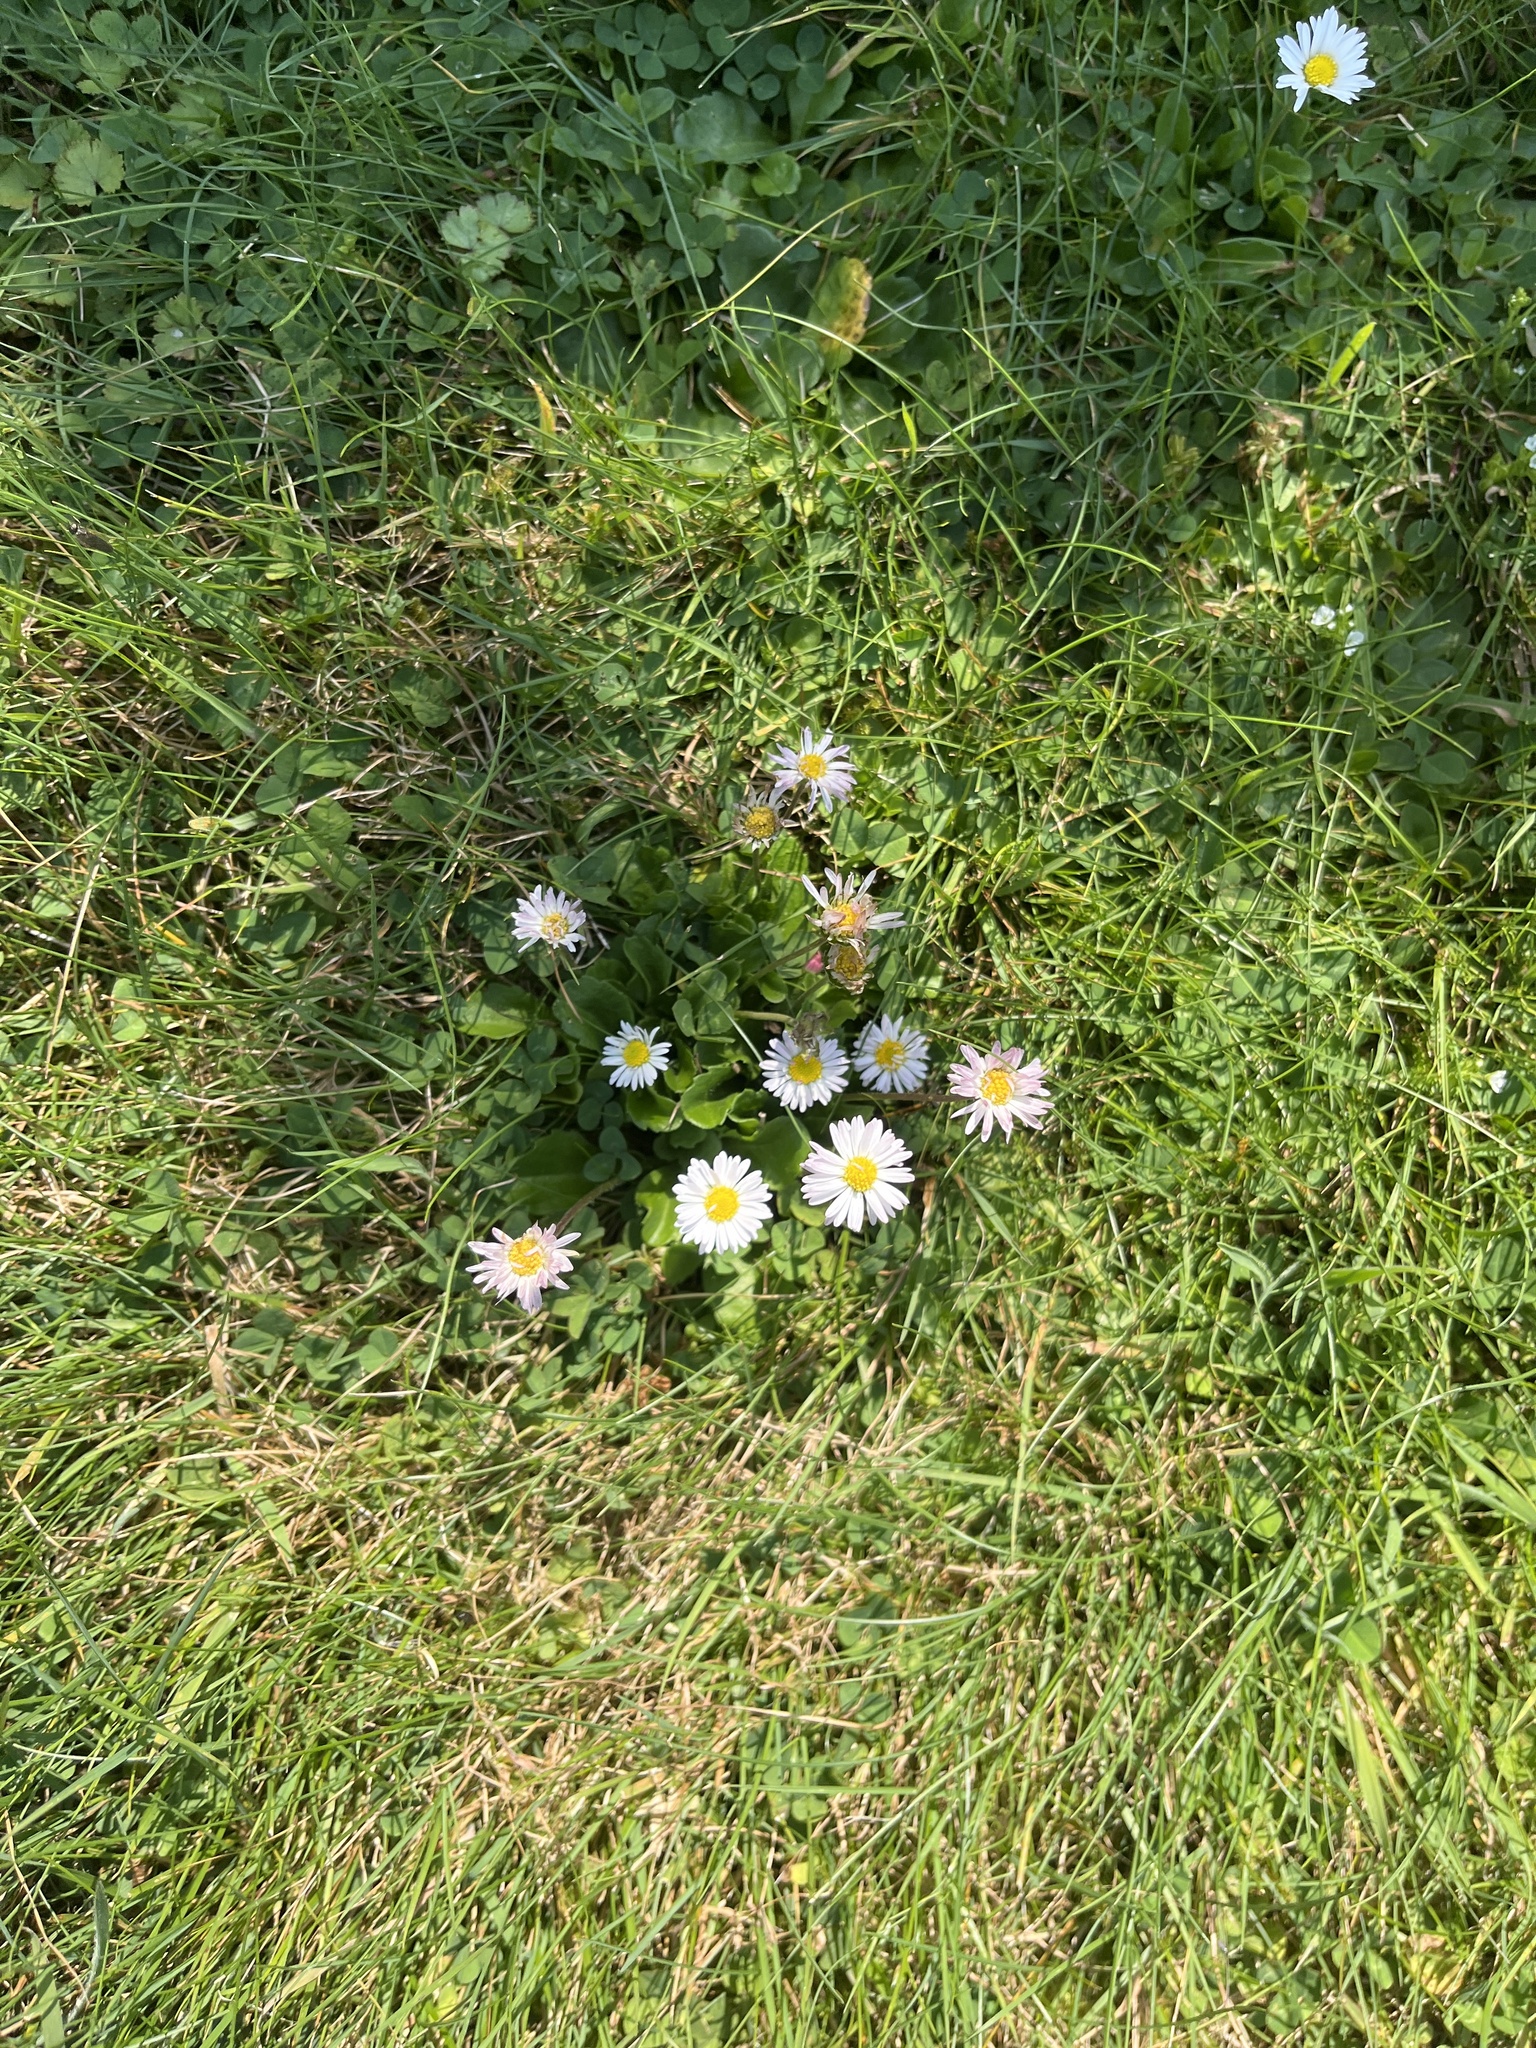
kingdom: Plantae
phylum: Tracheophyta
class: Magnoliopsida
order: Asterales
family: Asteraceae
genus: Bellis
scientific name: Bellis perennis
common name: Lawndaisy
